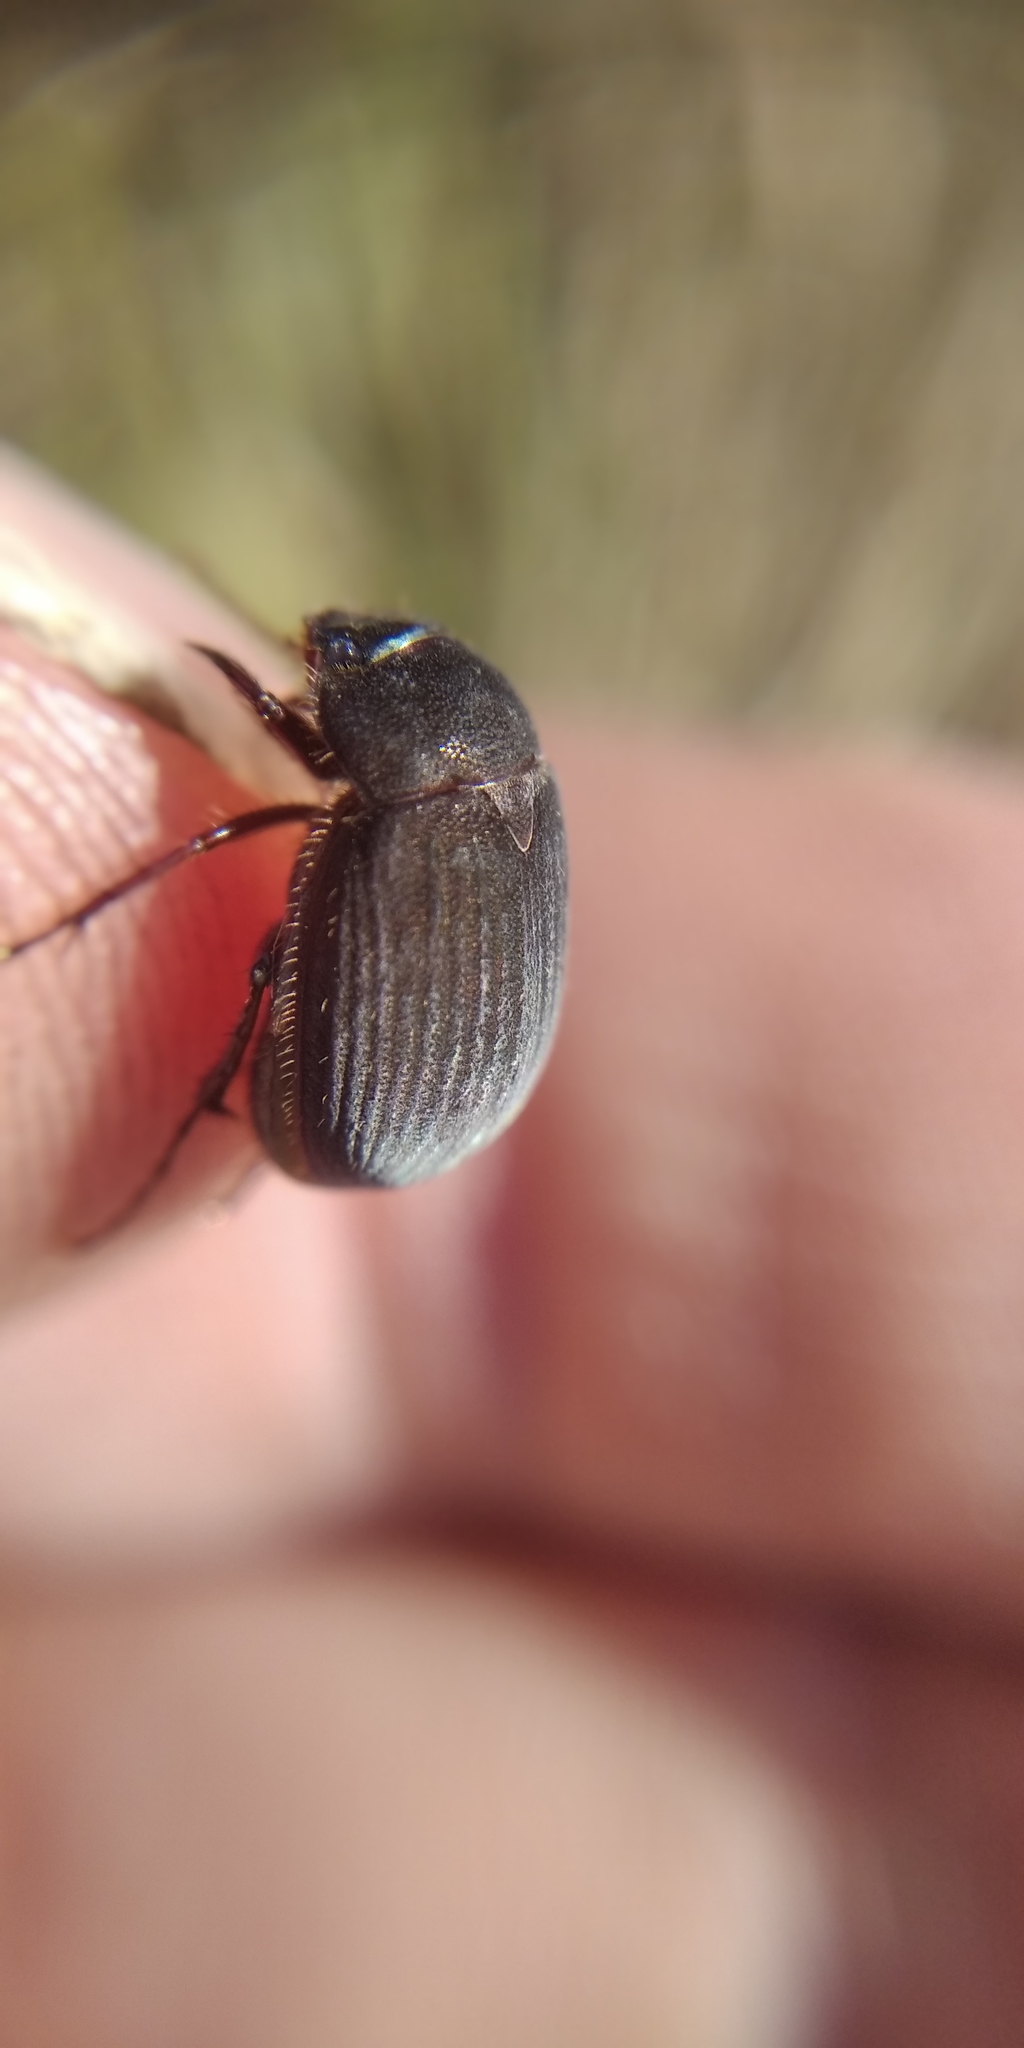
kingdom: Animalia
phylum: Arthropoda
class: Insecta
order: Coleoptera
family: Scarabaeidae
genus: Maladera
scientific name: Maladera holosericea
